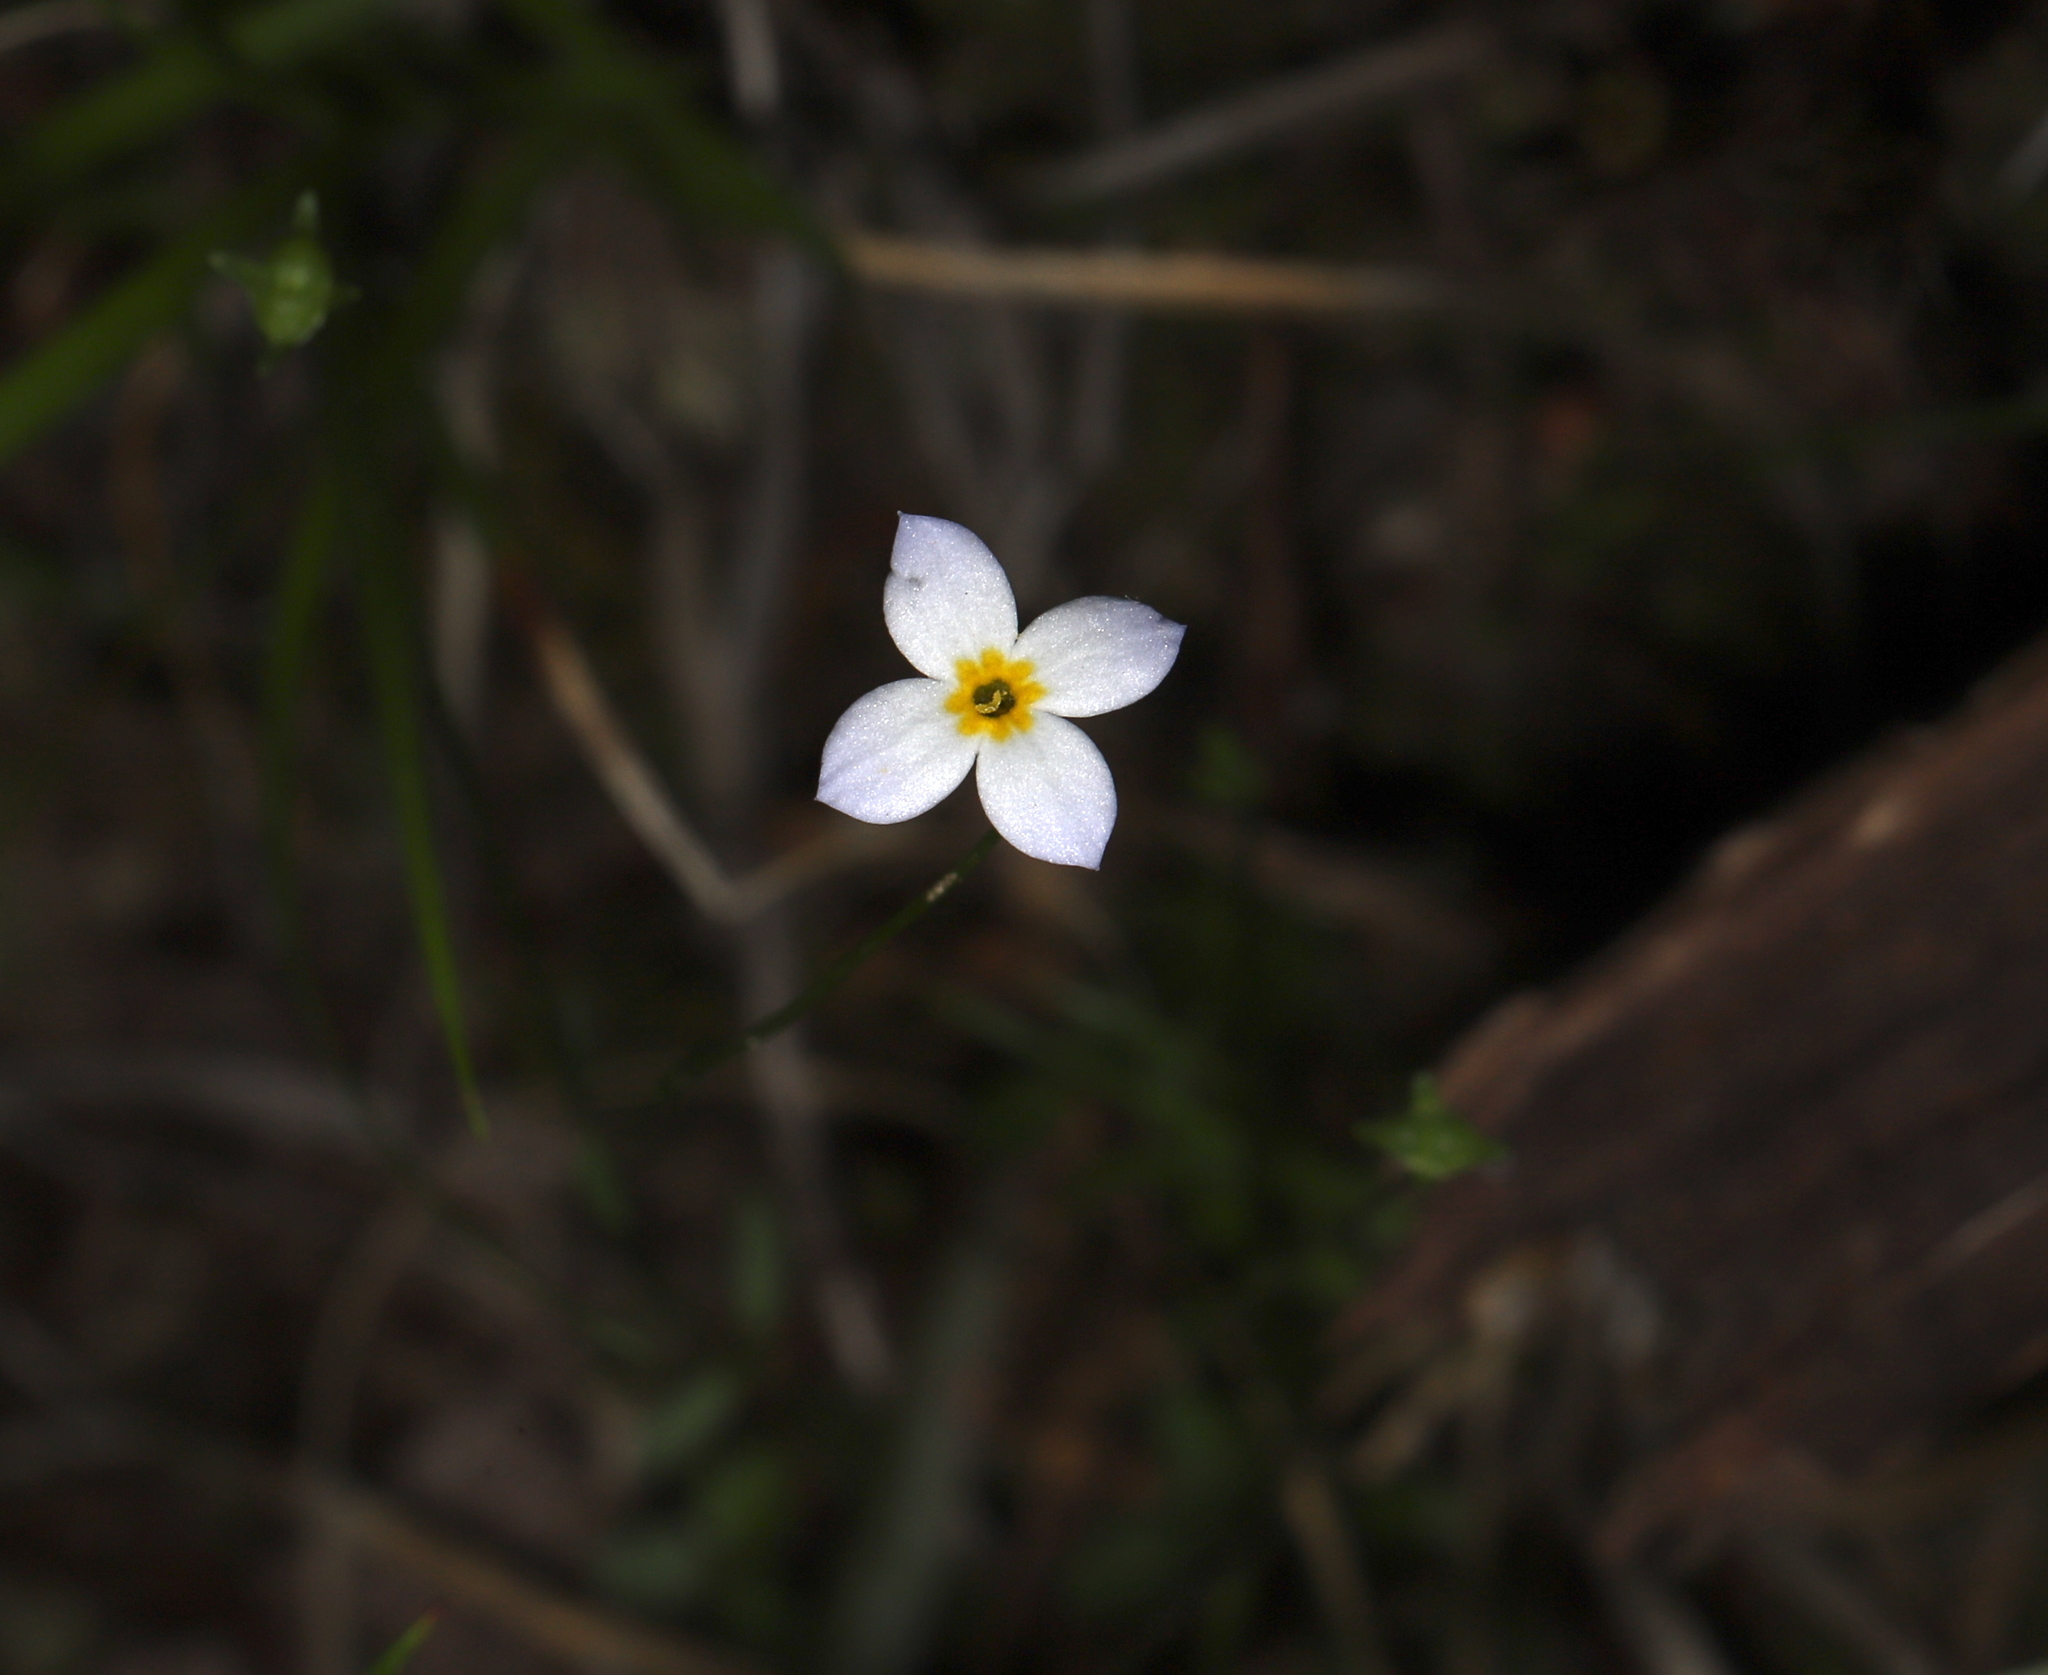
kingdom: Plantae
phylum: Tracheophyta
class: Magnoliopsida
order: Gentianales
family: Rubiaceae
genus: Houstonia
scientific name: Houstonia caerulea
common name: Bluets
